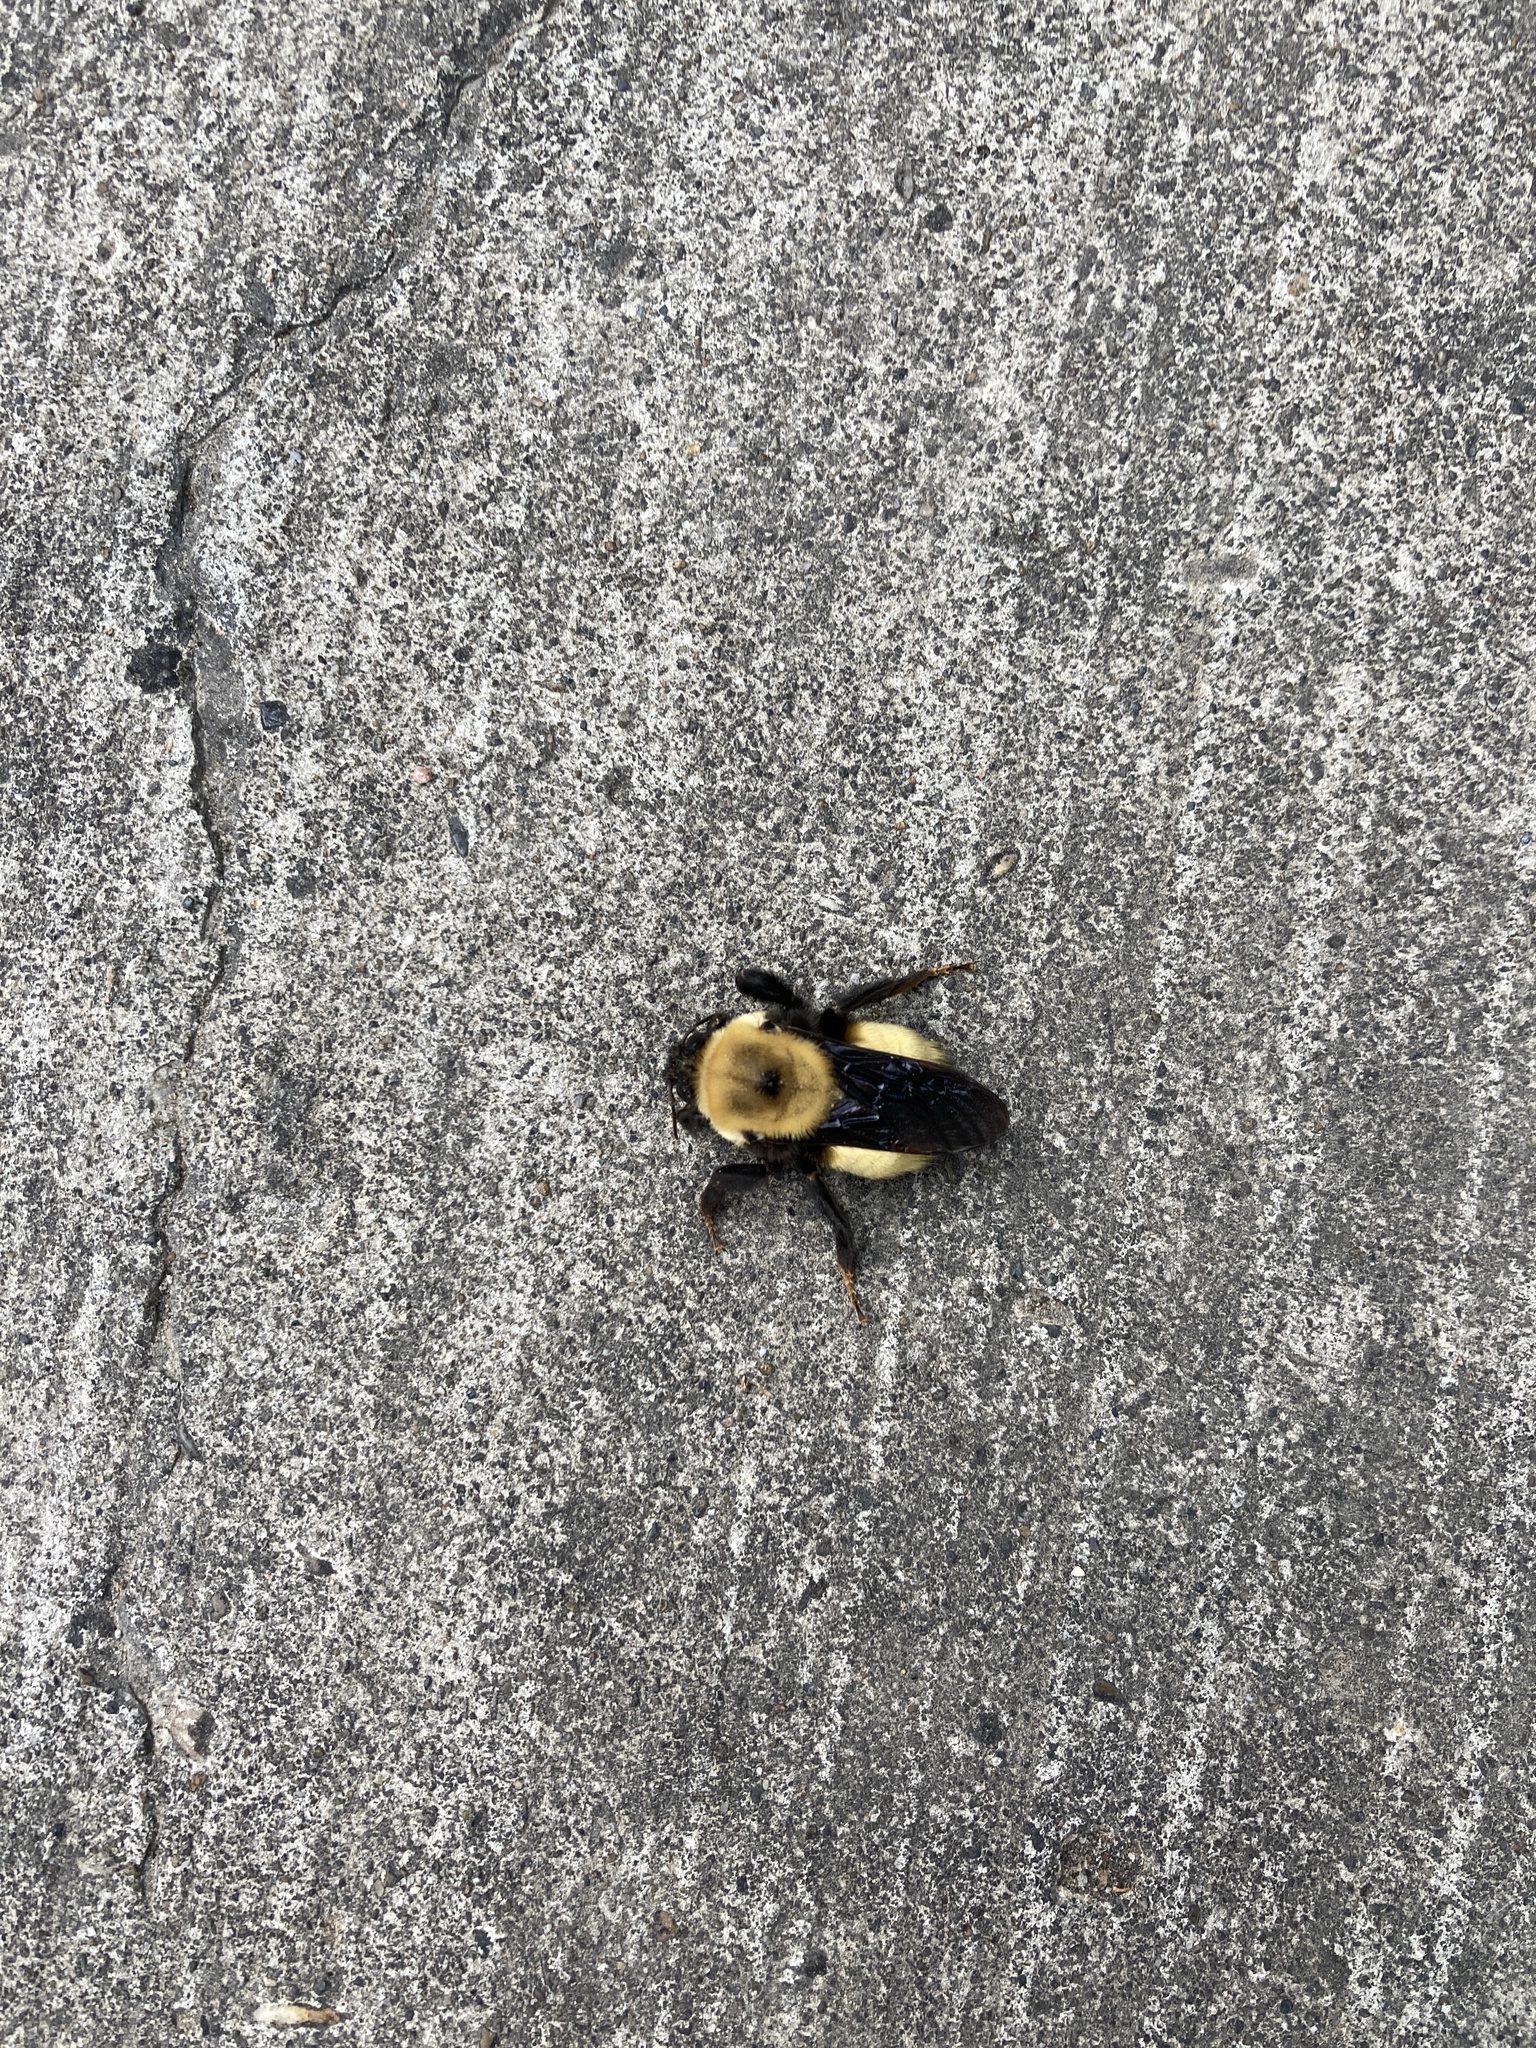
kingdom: Animalia
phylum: Arthropoda
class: Insecta
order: Hymenoptera
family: Apidae
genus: Bombus
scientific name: Bombus nevadensis
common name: Nevada bumble bee
